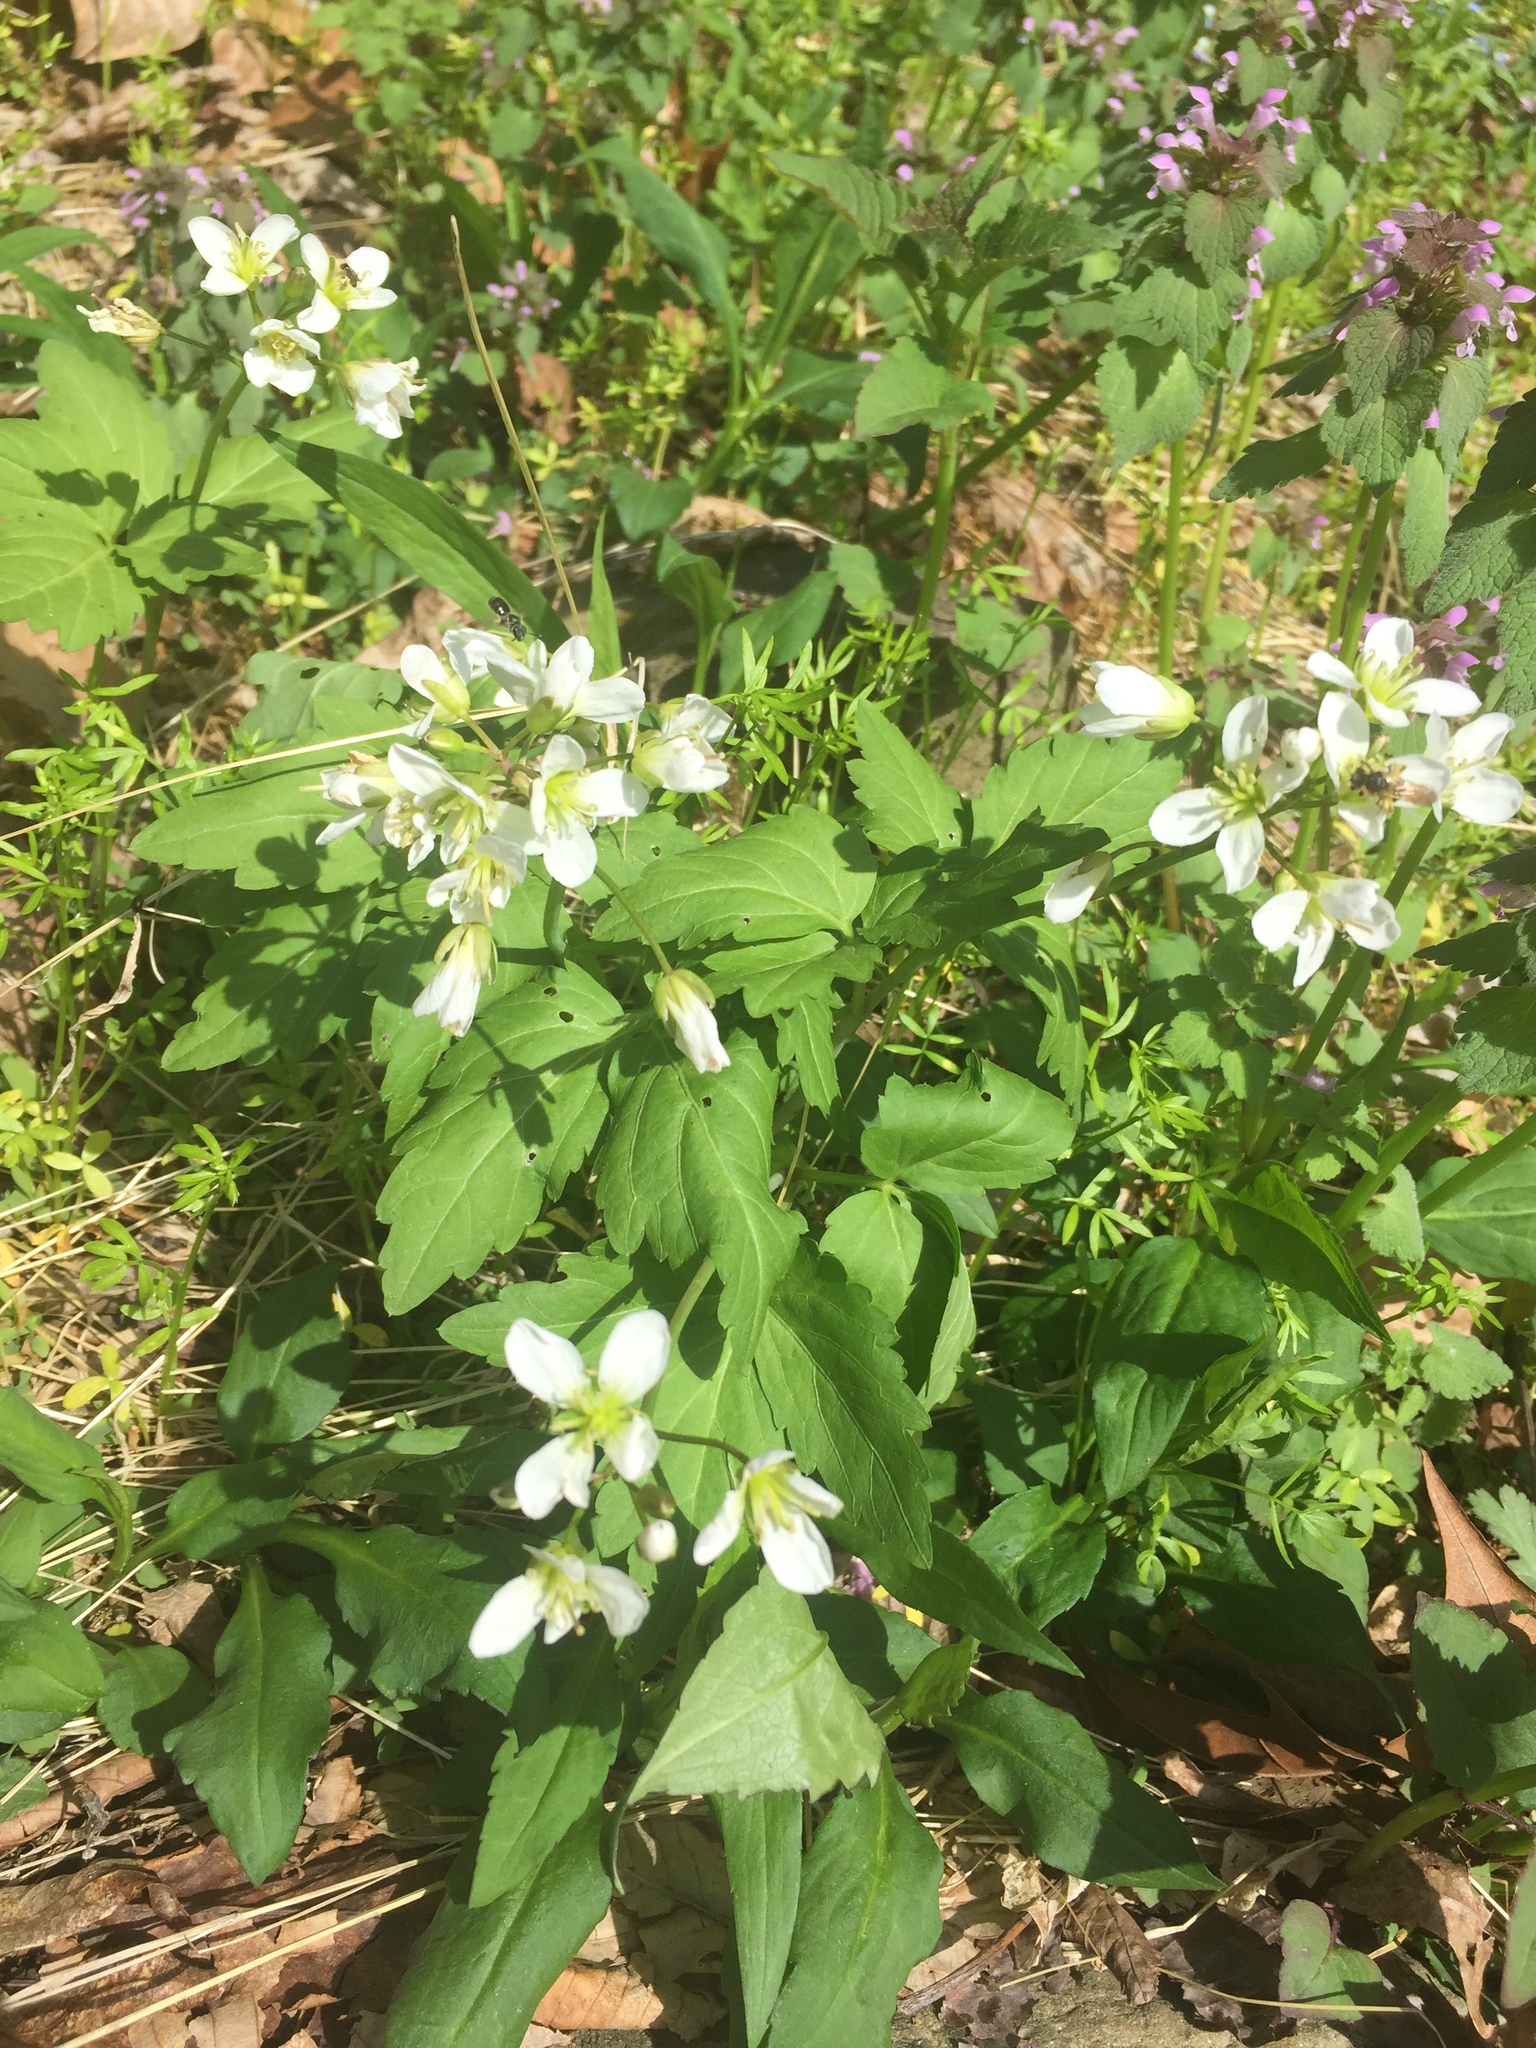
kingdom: Plantae
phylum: Tracheophyta
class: Magnoliopsida
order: Brassicales
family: Brassicaceae
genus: Cardamine
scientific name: Cardamine diphylla
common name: Broad-leaved toothwort
